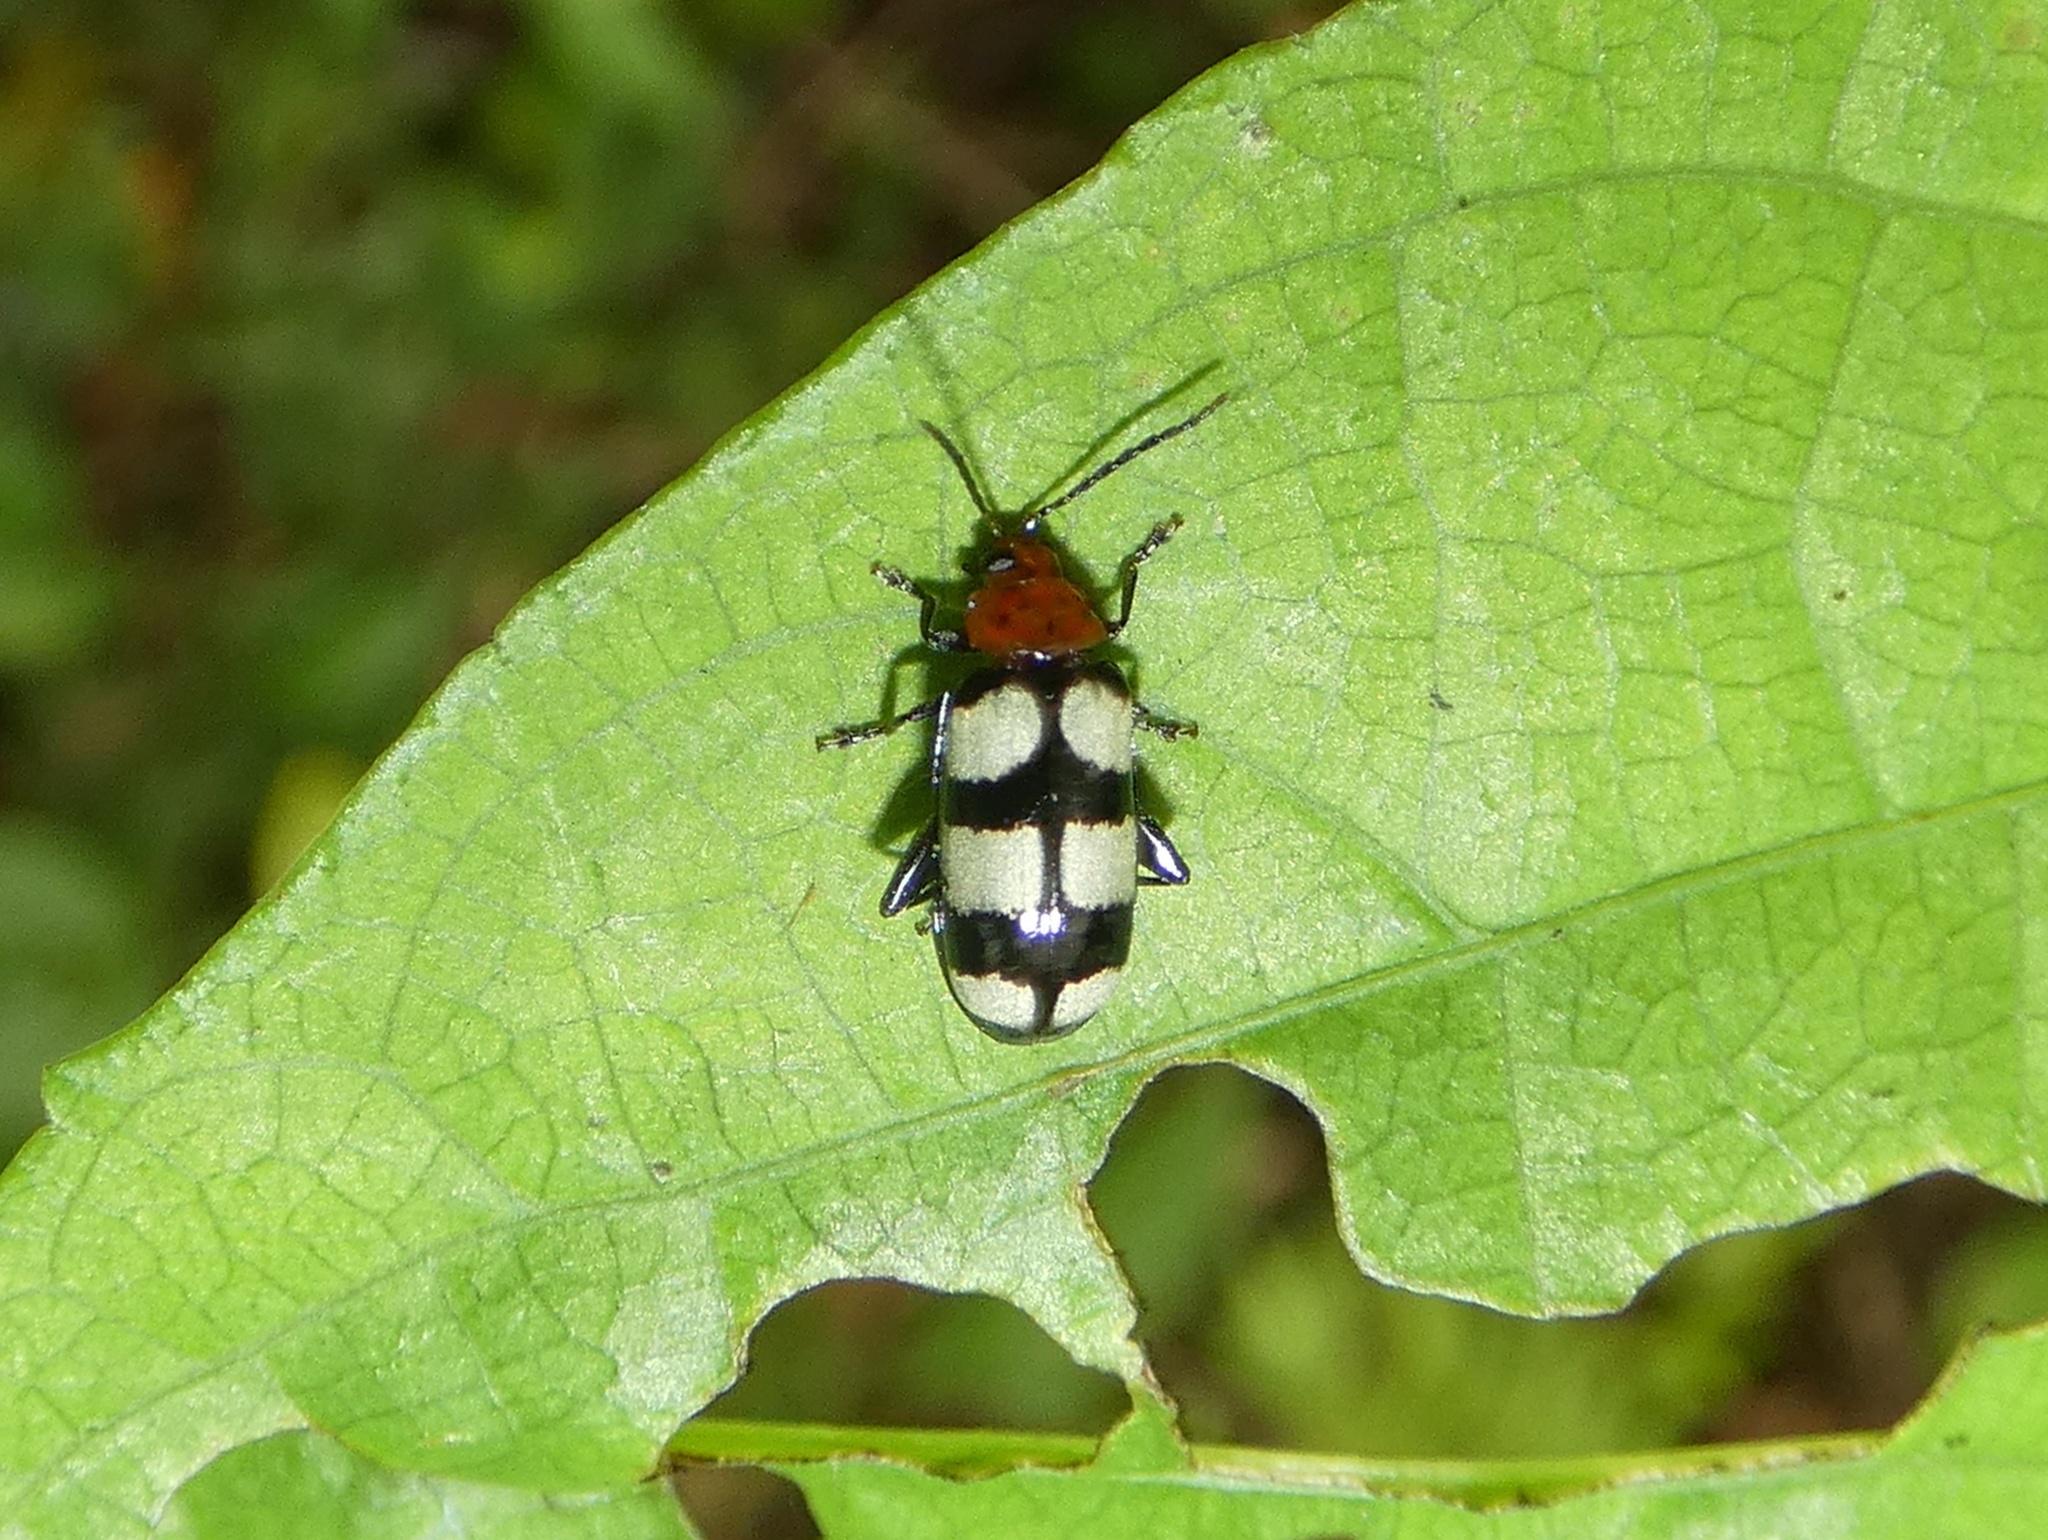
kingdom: Animalia
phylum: Arthropoda
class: Insecta
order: Coleoptera
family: Chrysomelidae
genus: Disonycha
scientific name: Disonycha
